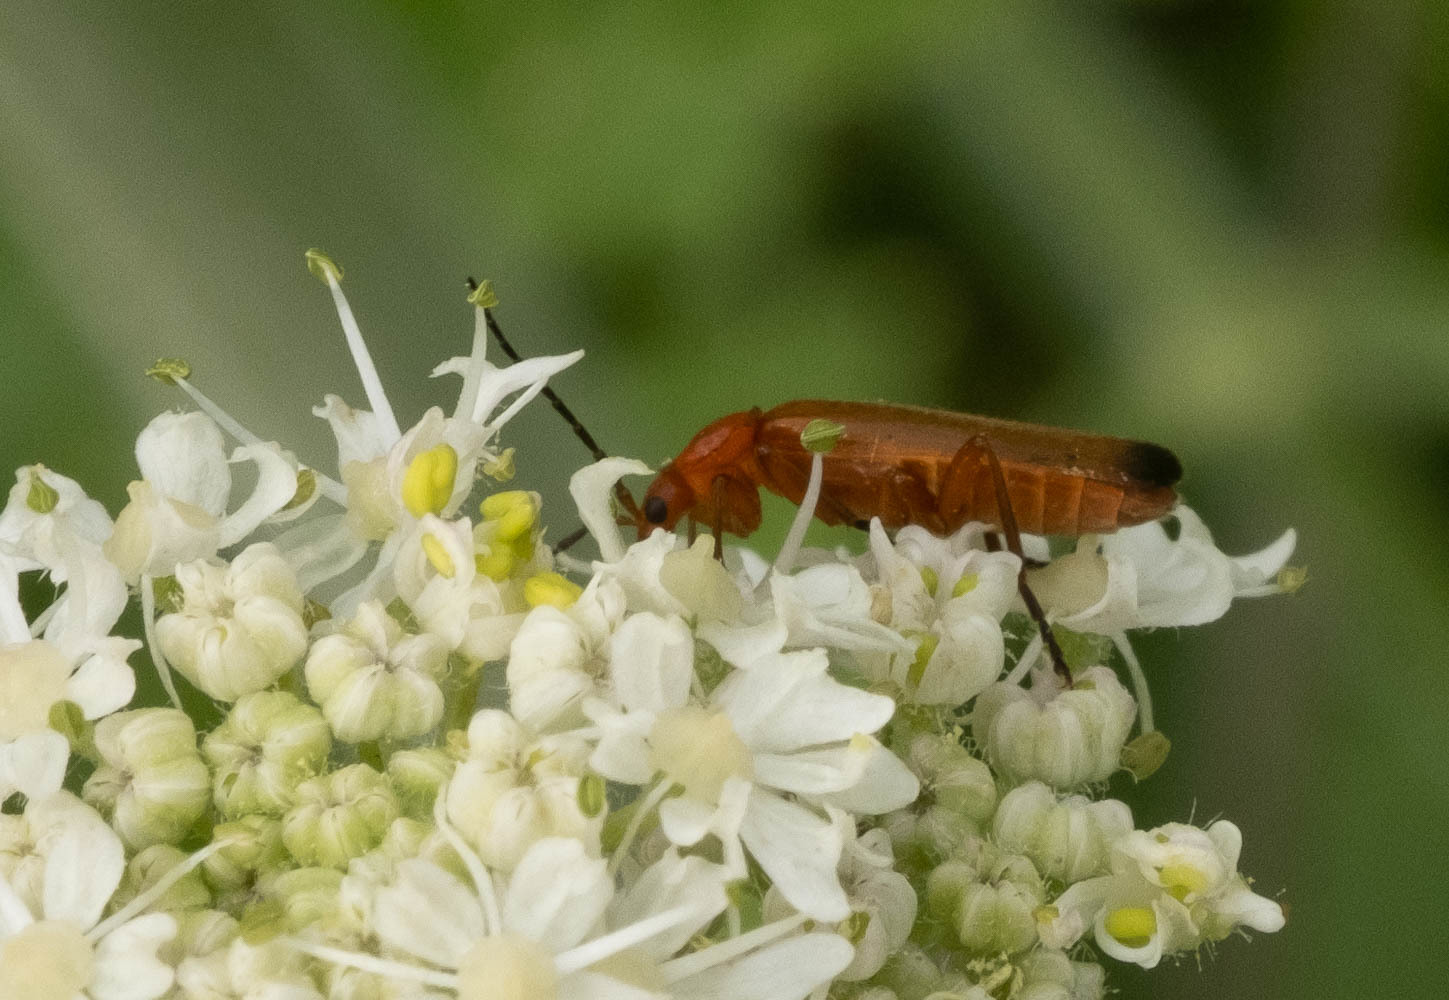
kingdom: Animalia
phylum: Arthropoda
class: Insecta
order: Coleoptera
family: Cantharidae
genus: Rhagonycha
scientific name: Rhagonycha fulva
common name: Common red soldier beetle
